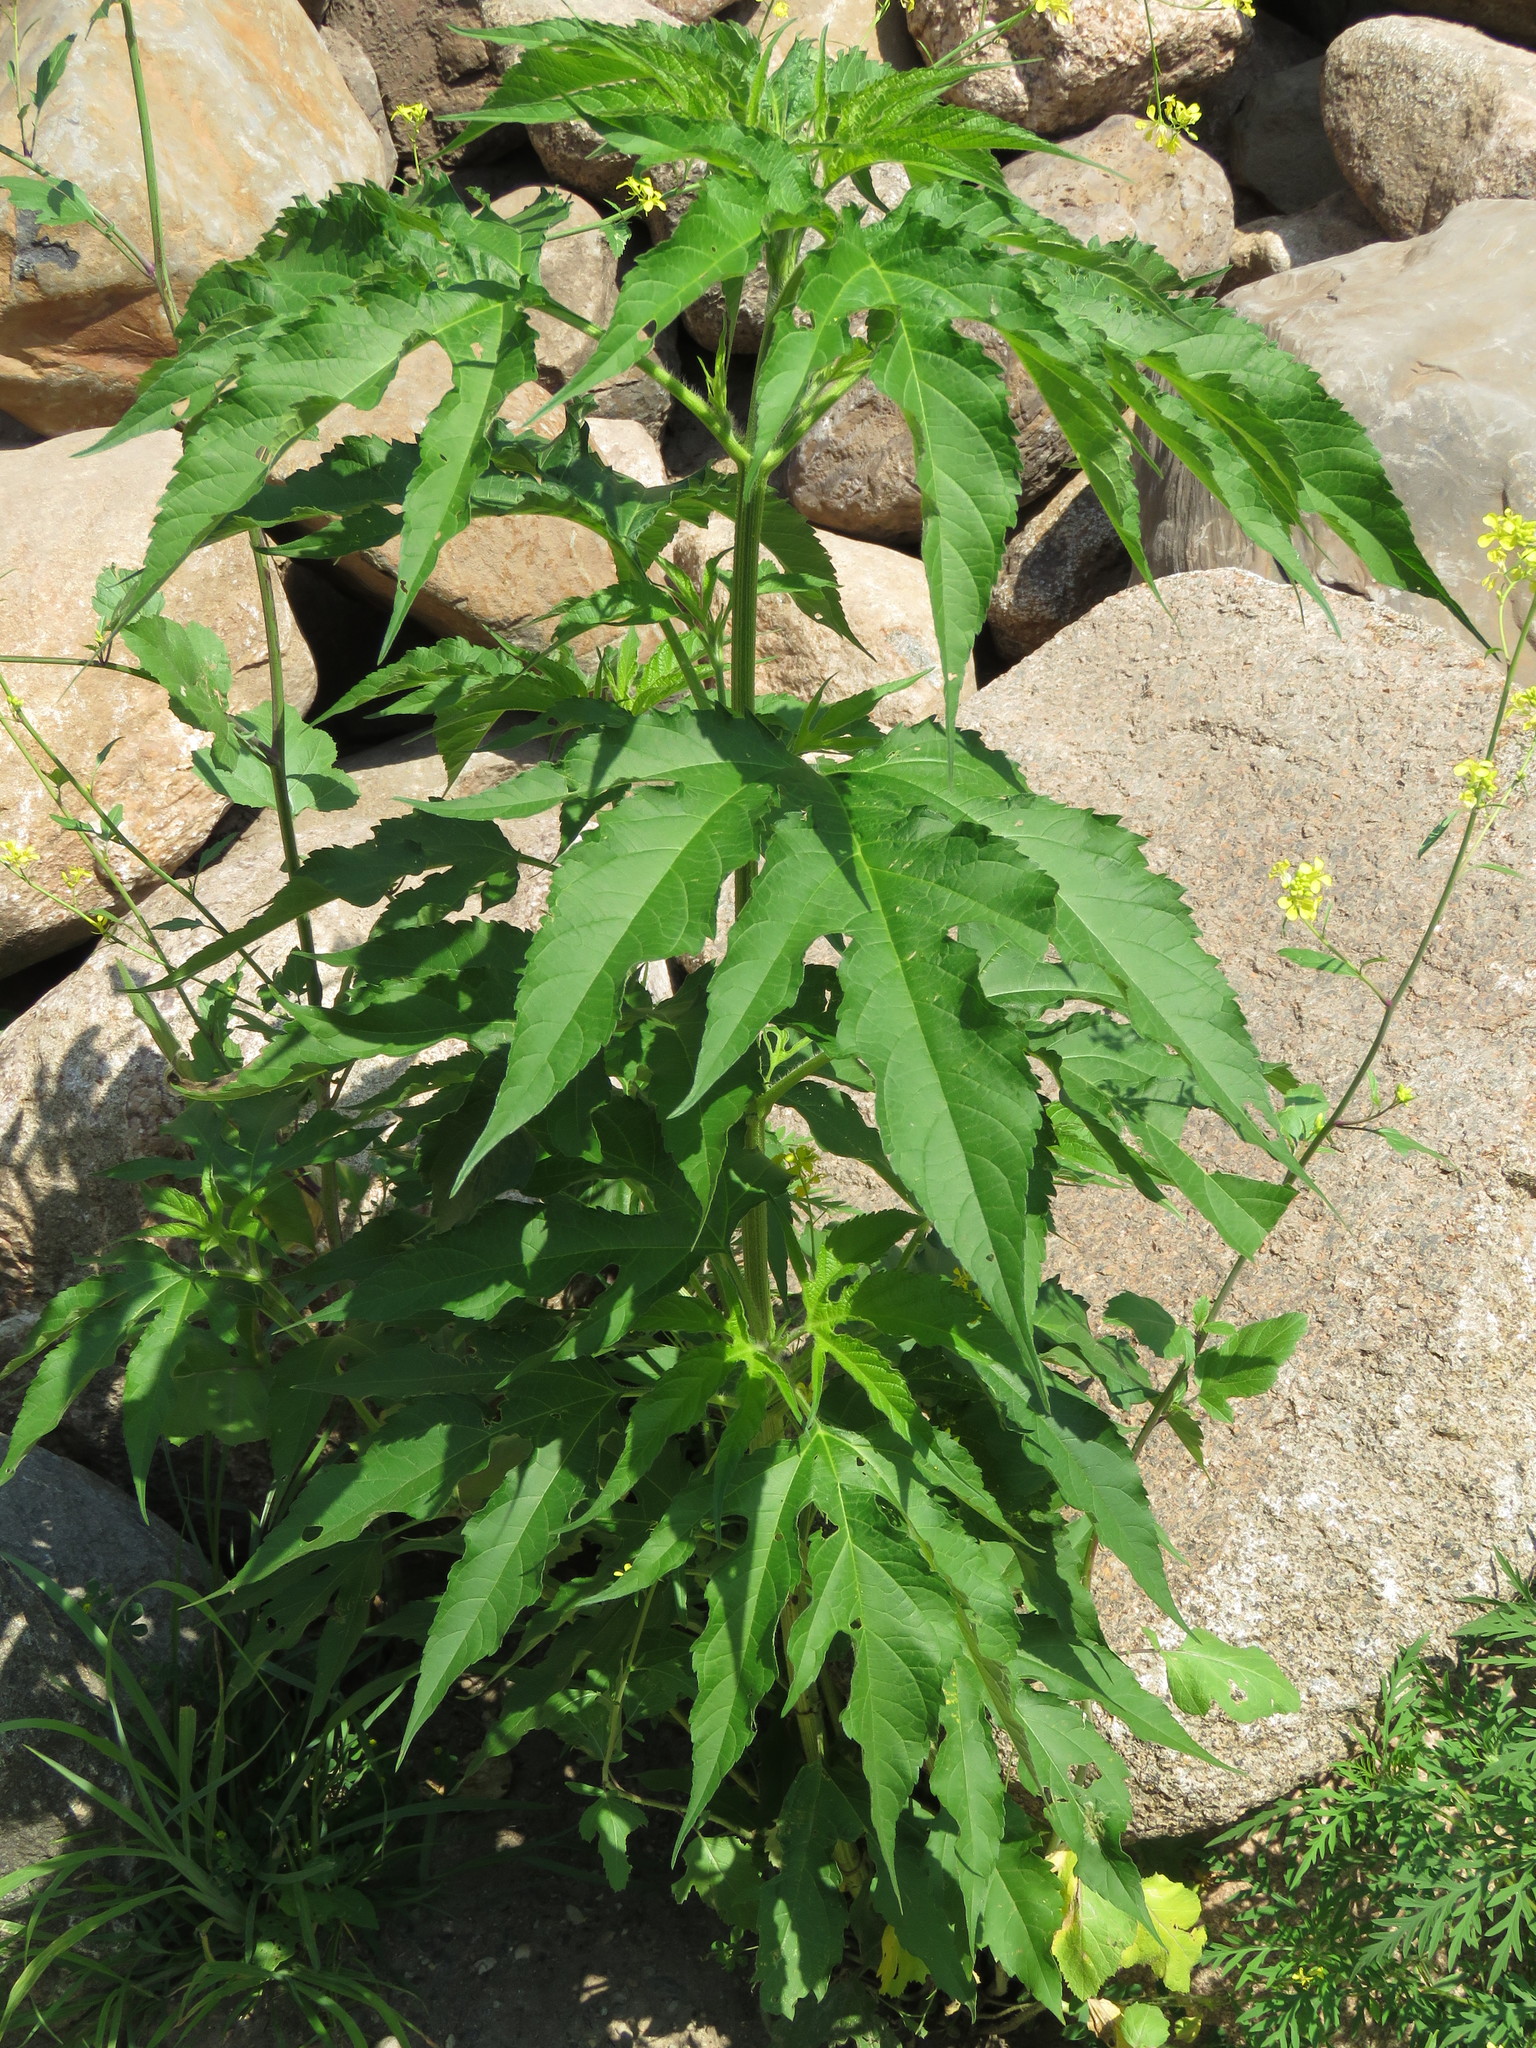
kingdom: Plantae
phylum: Tracheophyta
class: Magnoliopsida
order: Asterales
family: Asteraceae
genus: Ambrosia
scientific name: Ambrosia trifida
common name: Giant ragweed
